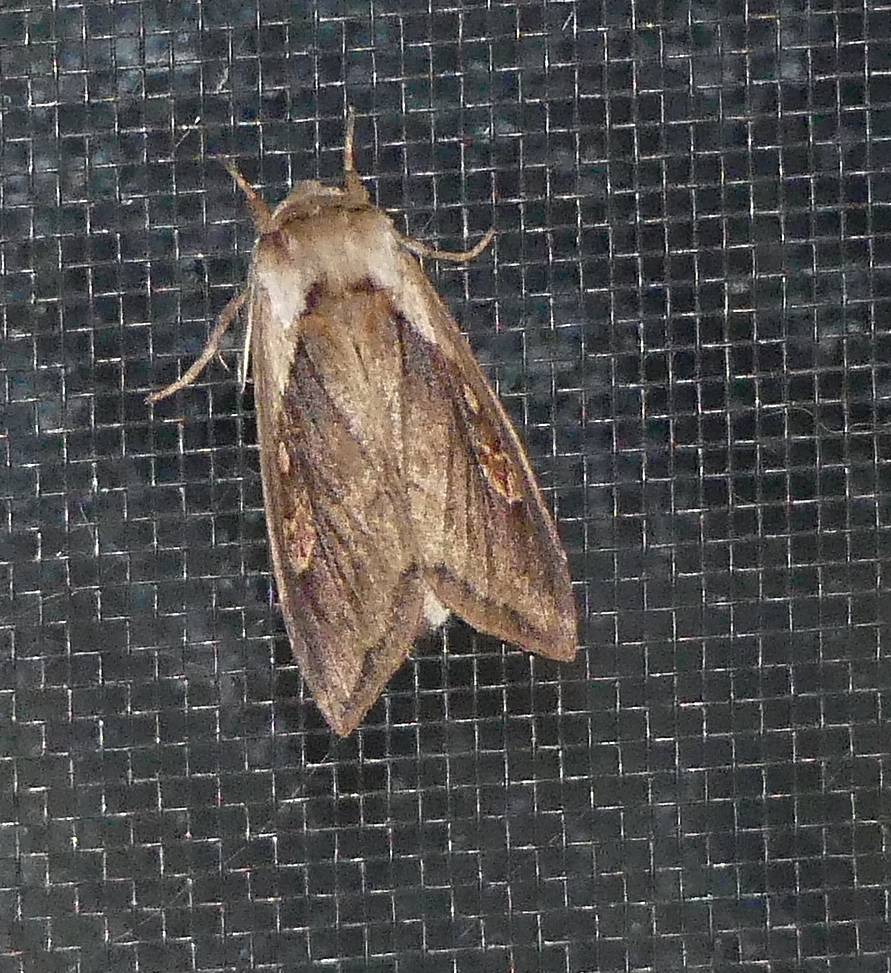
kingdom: Animalia
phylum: Arthropoda
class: Insecta
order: Lepidoptera
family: Noctuidae
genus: Bellura
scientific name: Bellura obliqua
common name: Cattail borer moth
